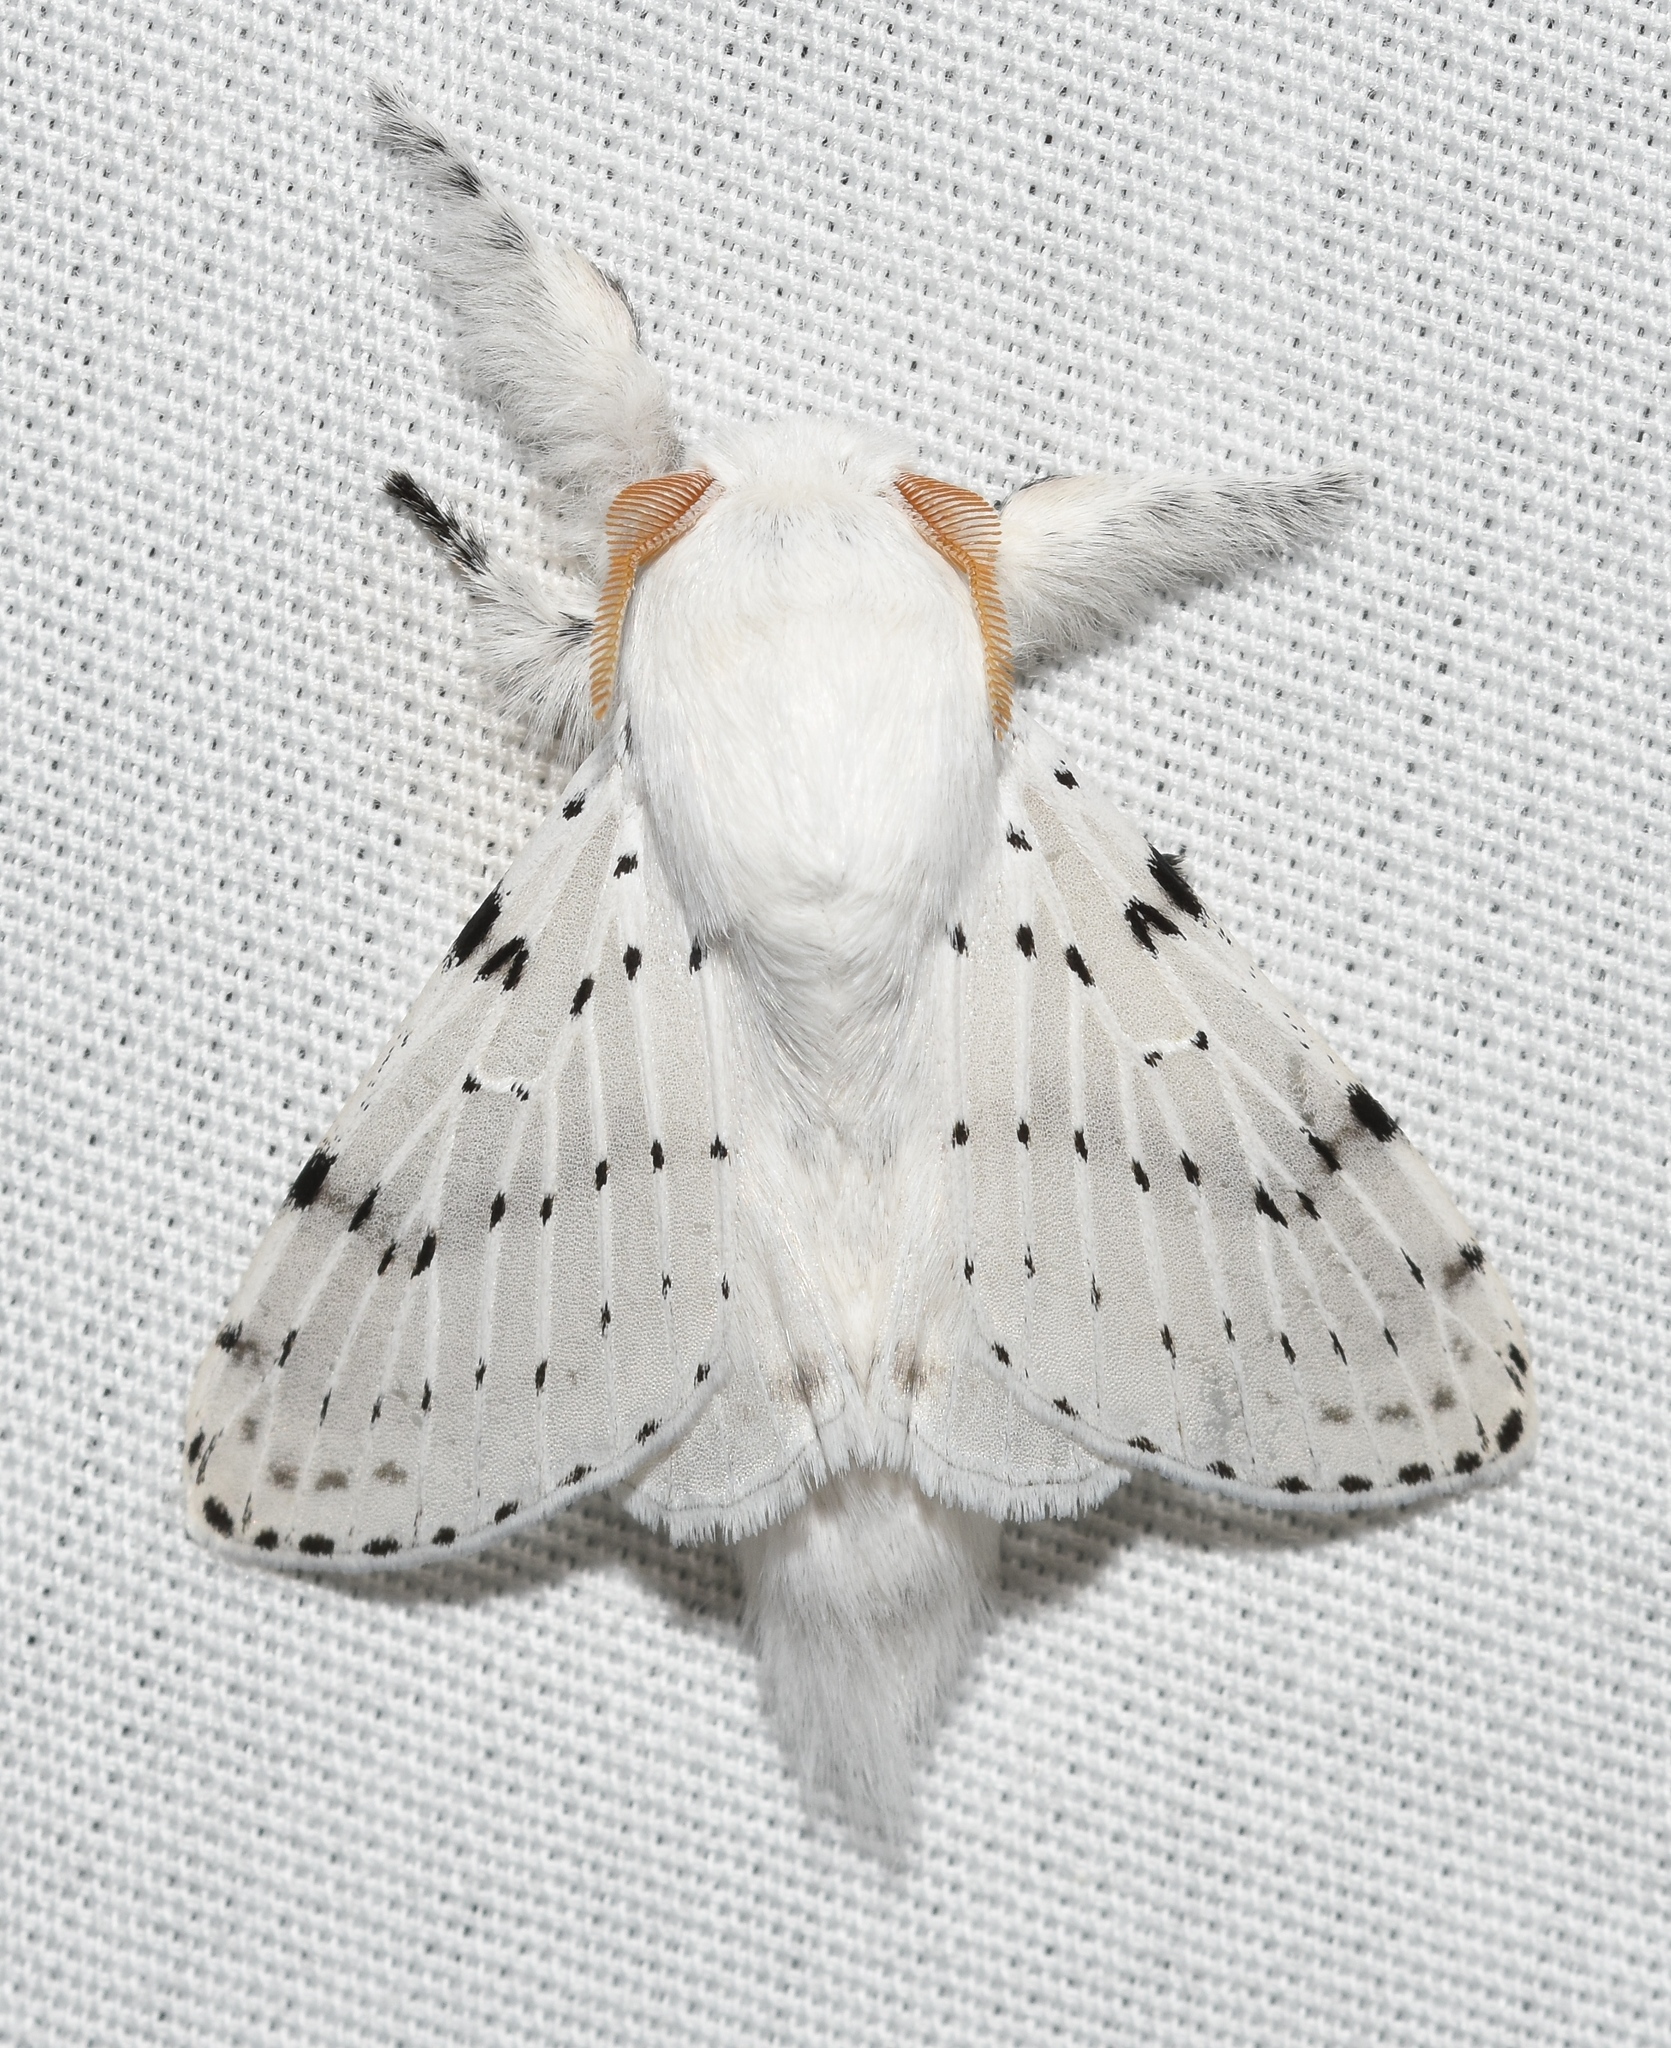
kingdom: Animalia
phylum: Arthropoda
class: Insecta
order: Lepidoptera
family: Lasiocampidae
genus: Artace
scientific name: Artace cribrarius
